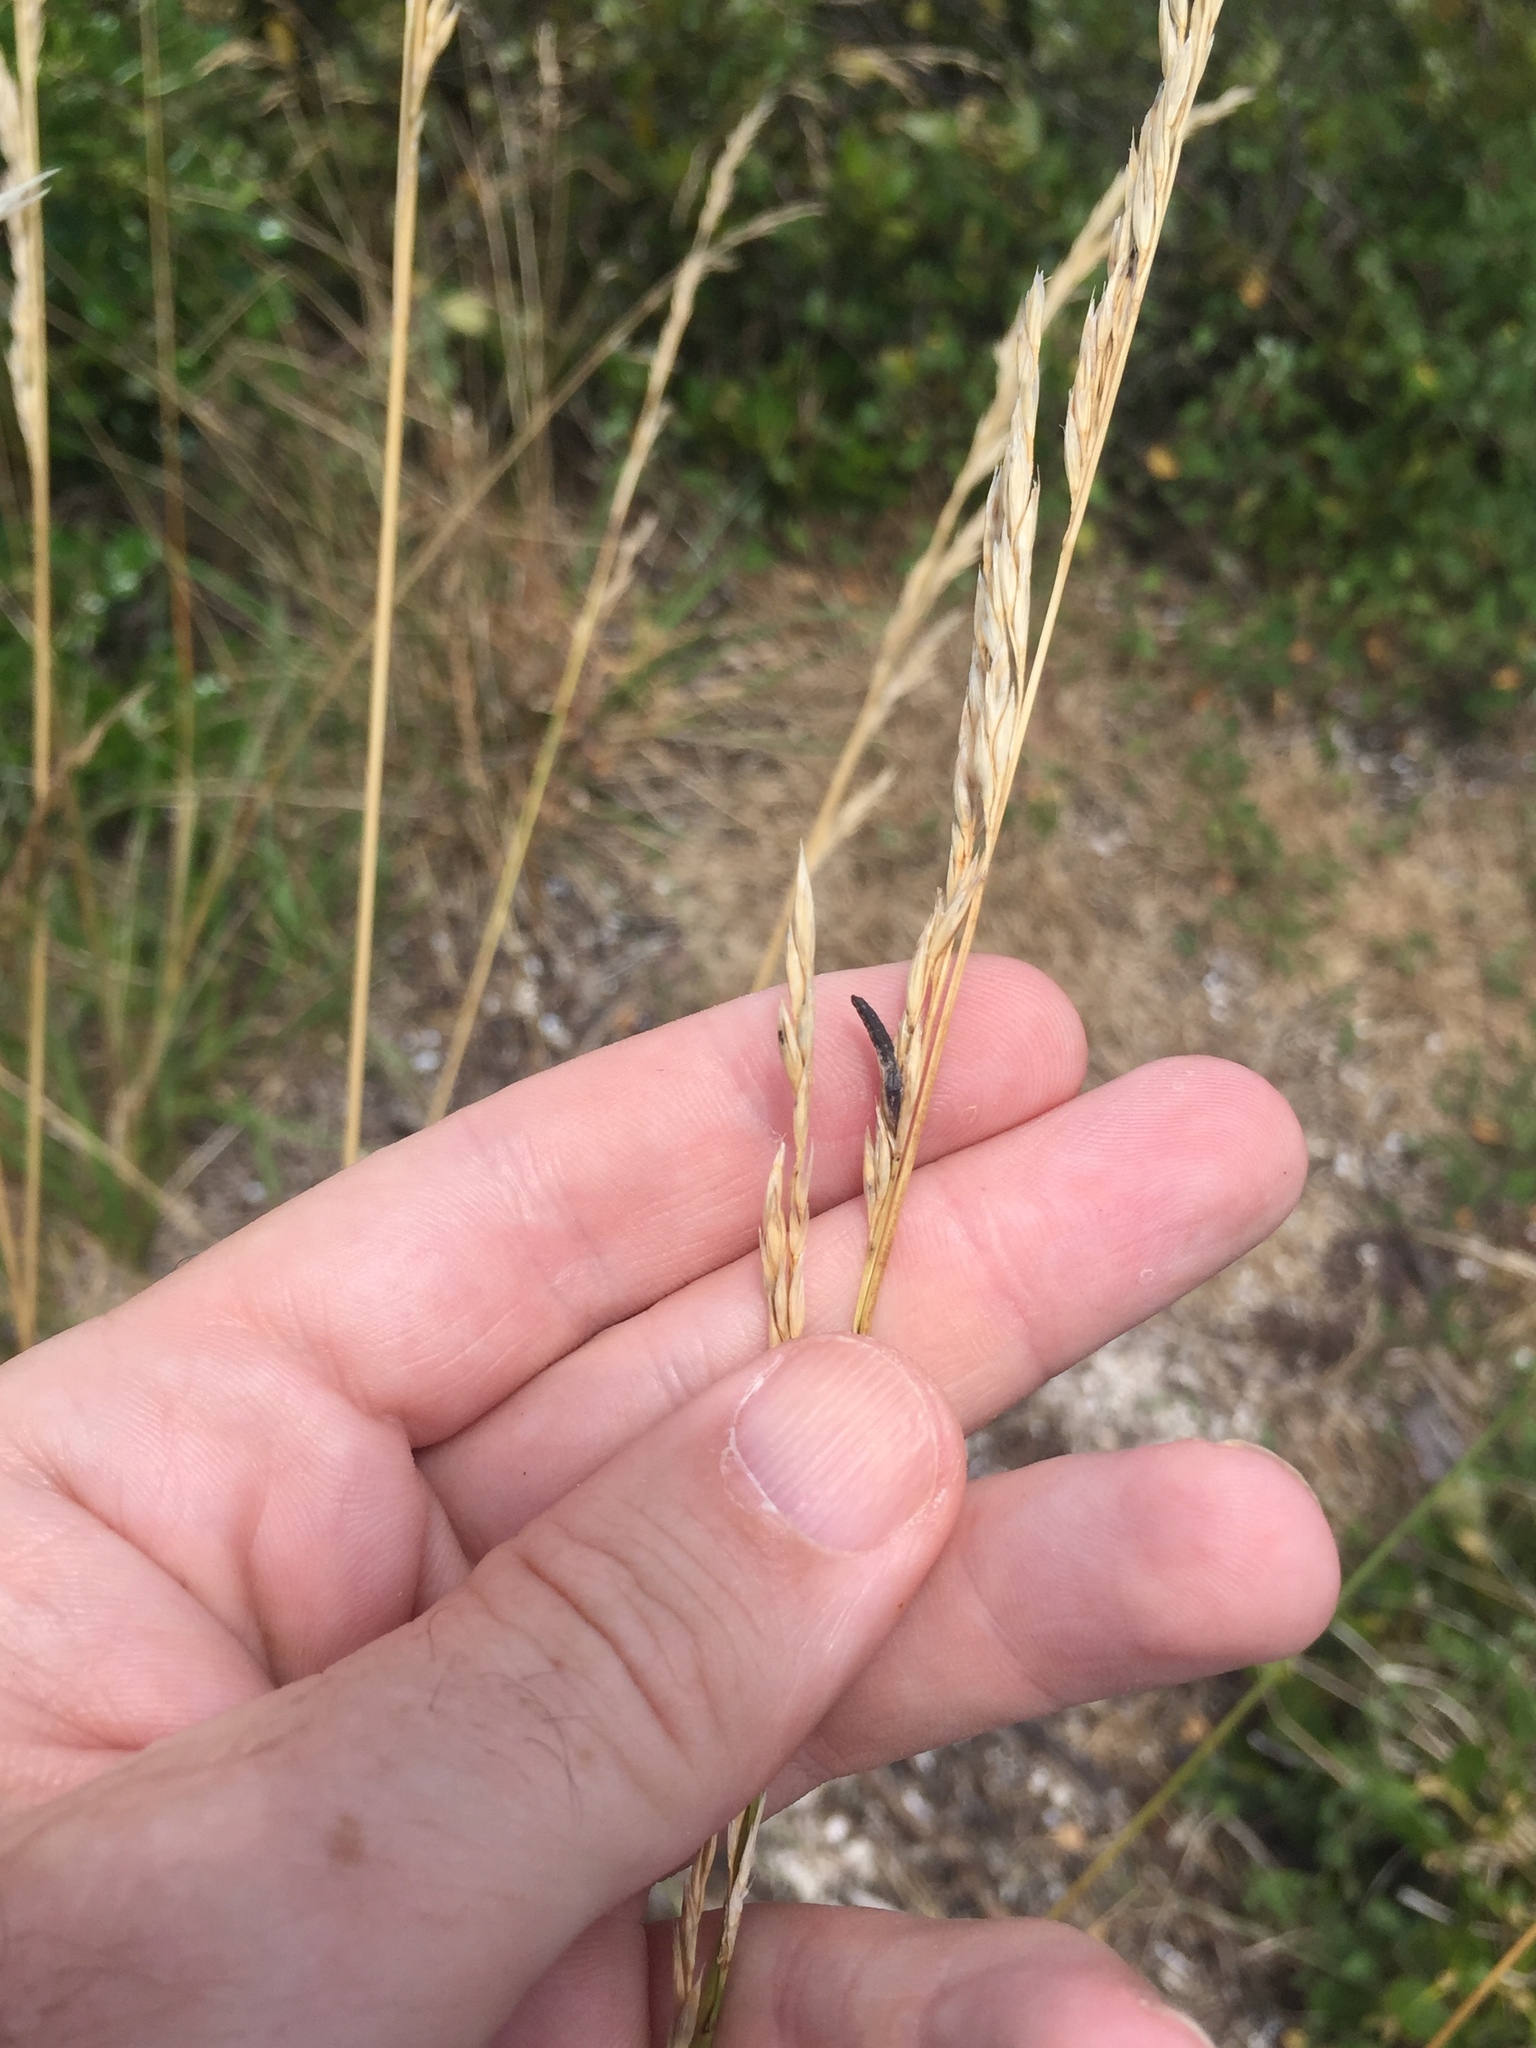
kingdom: Fungi
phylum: Ascomycota
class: Sordariomycetes
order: Hypocreales
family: Clavicipitaceae
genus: Claviceps
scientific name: Claviceps purpurea
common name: Rye ergot
